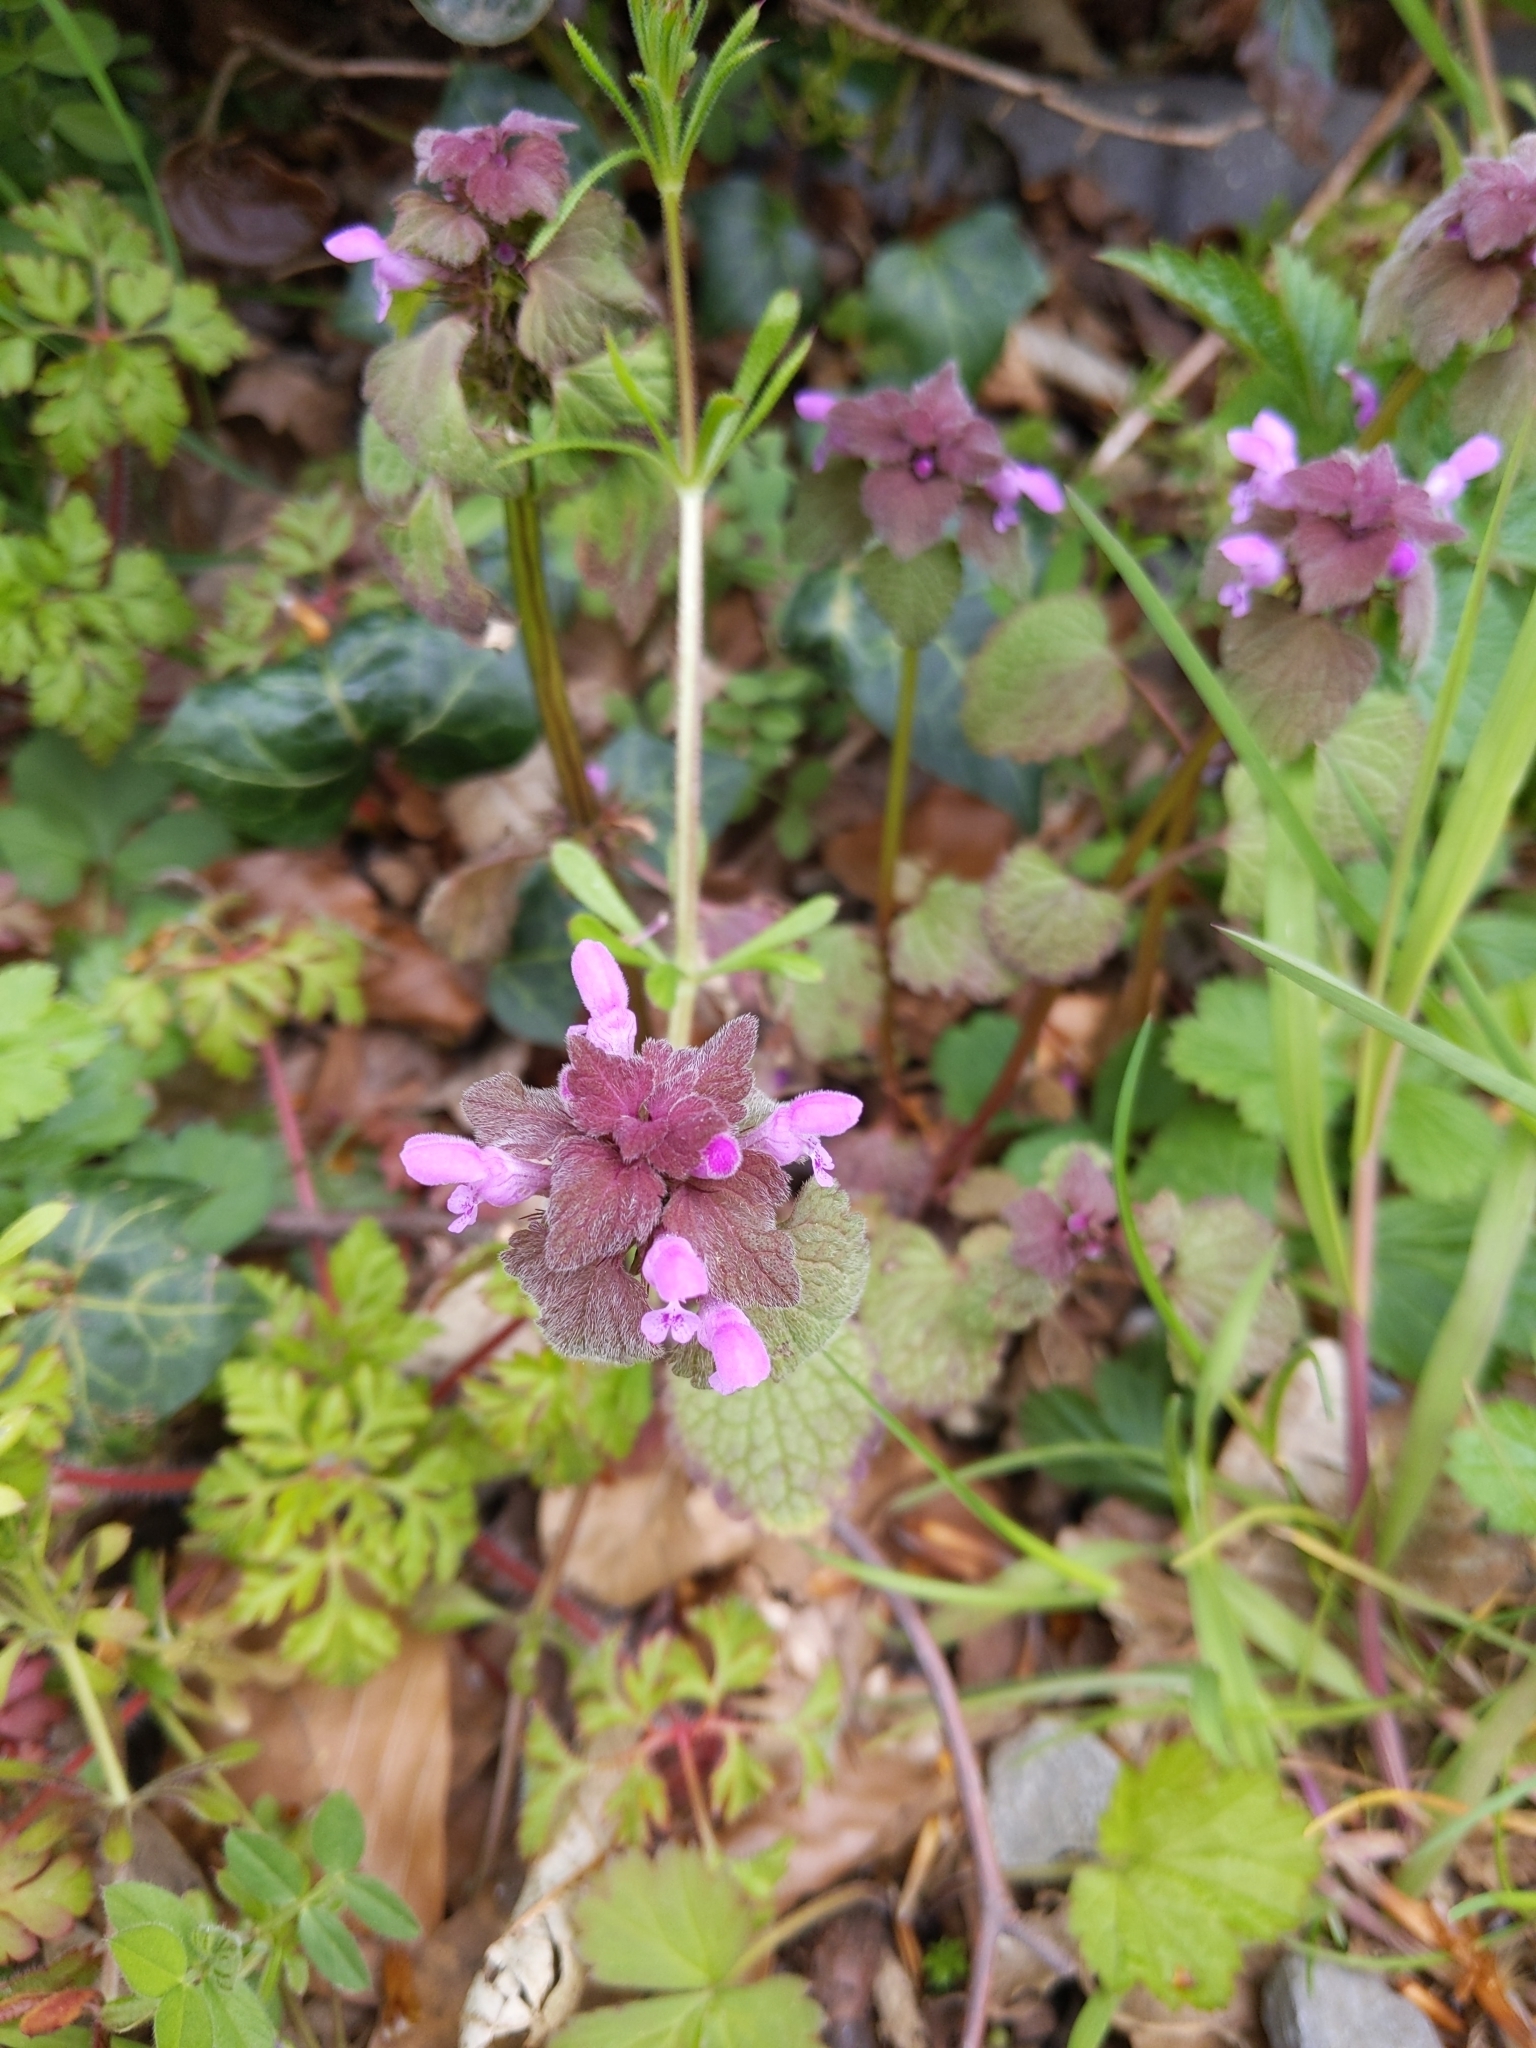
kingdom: Plantae
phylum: Tracheophyta
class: Magnoliopsida
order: Lamiales
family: Lamiaceae
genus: Lamium
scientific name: Lamium purpureum
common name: Red dead-nettle
